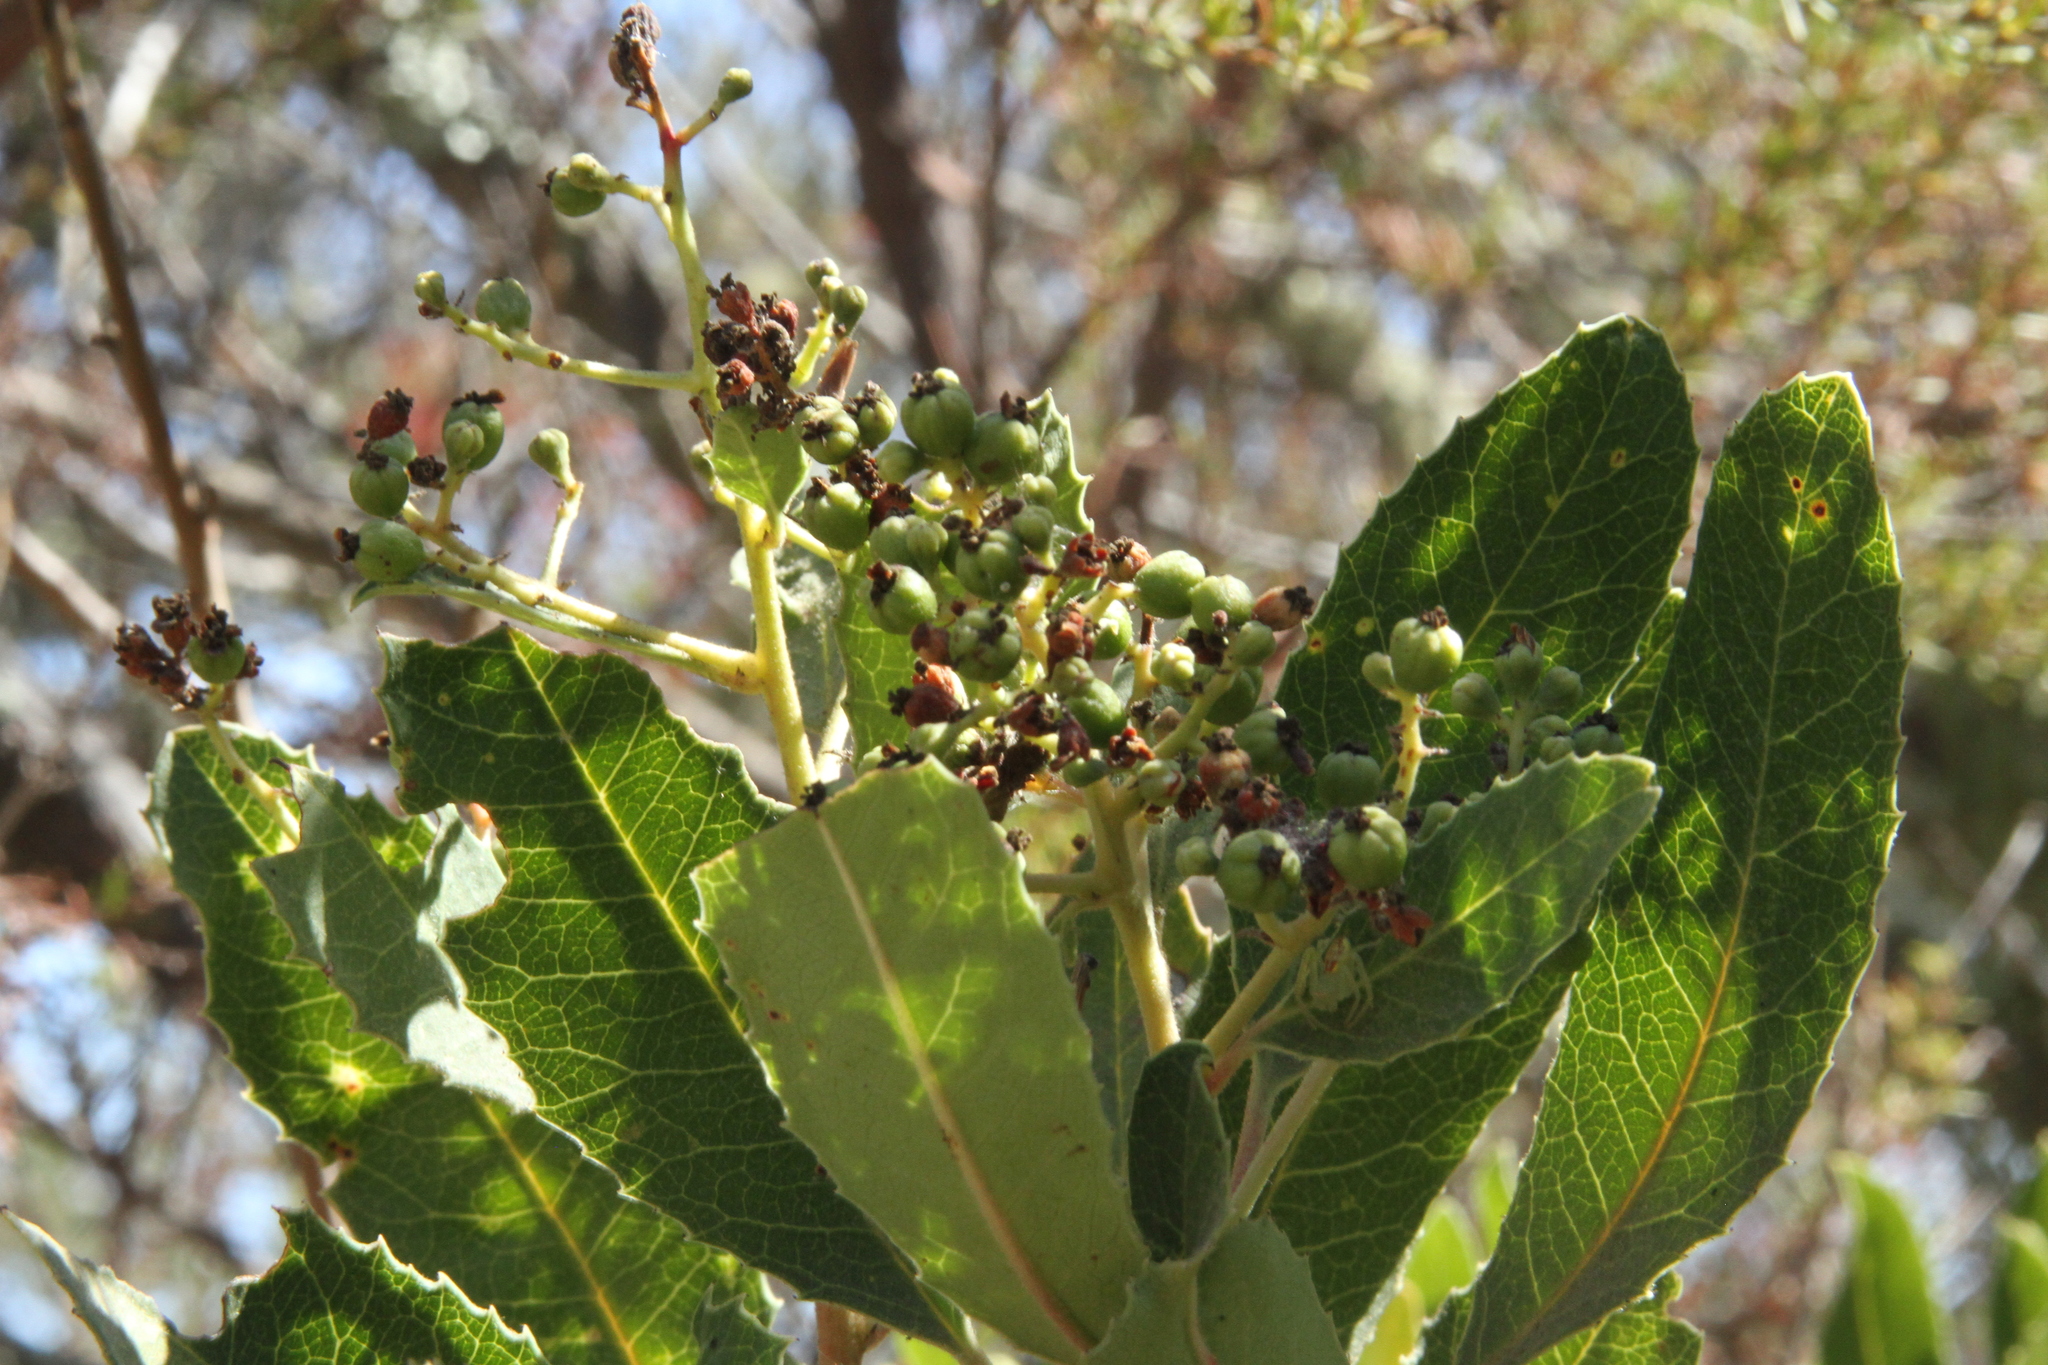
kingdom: Plantae
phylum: Tracheophyta
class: Magnoliopsida
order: Rosales
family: Rosaceae
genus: Heteromeles
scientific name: Heteromeles arbutifolia
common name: California-holly
